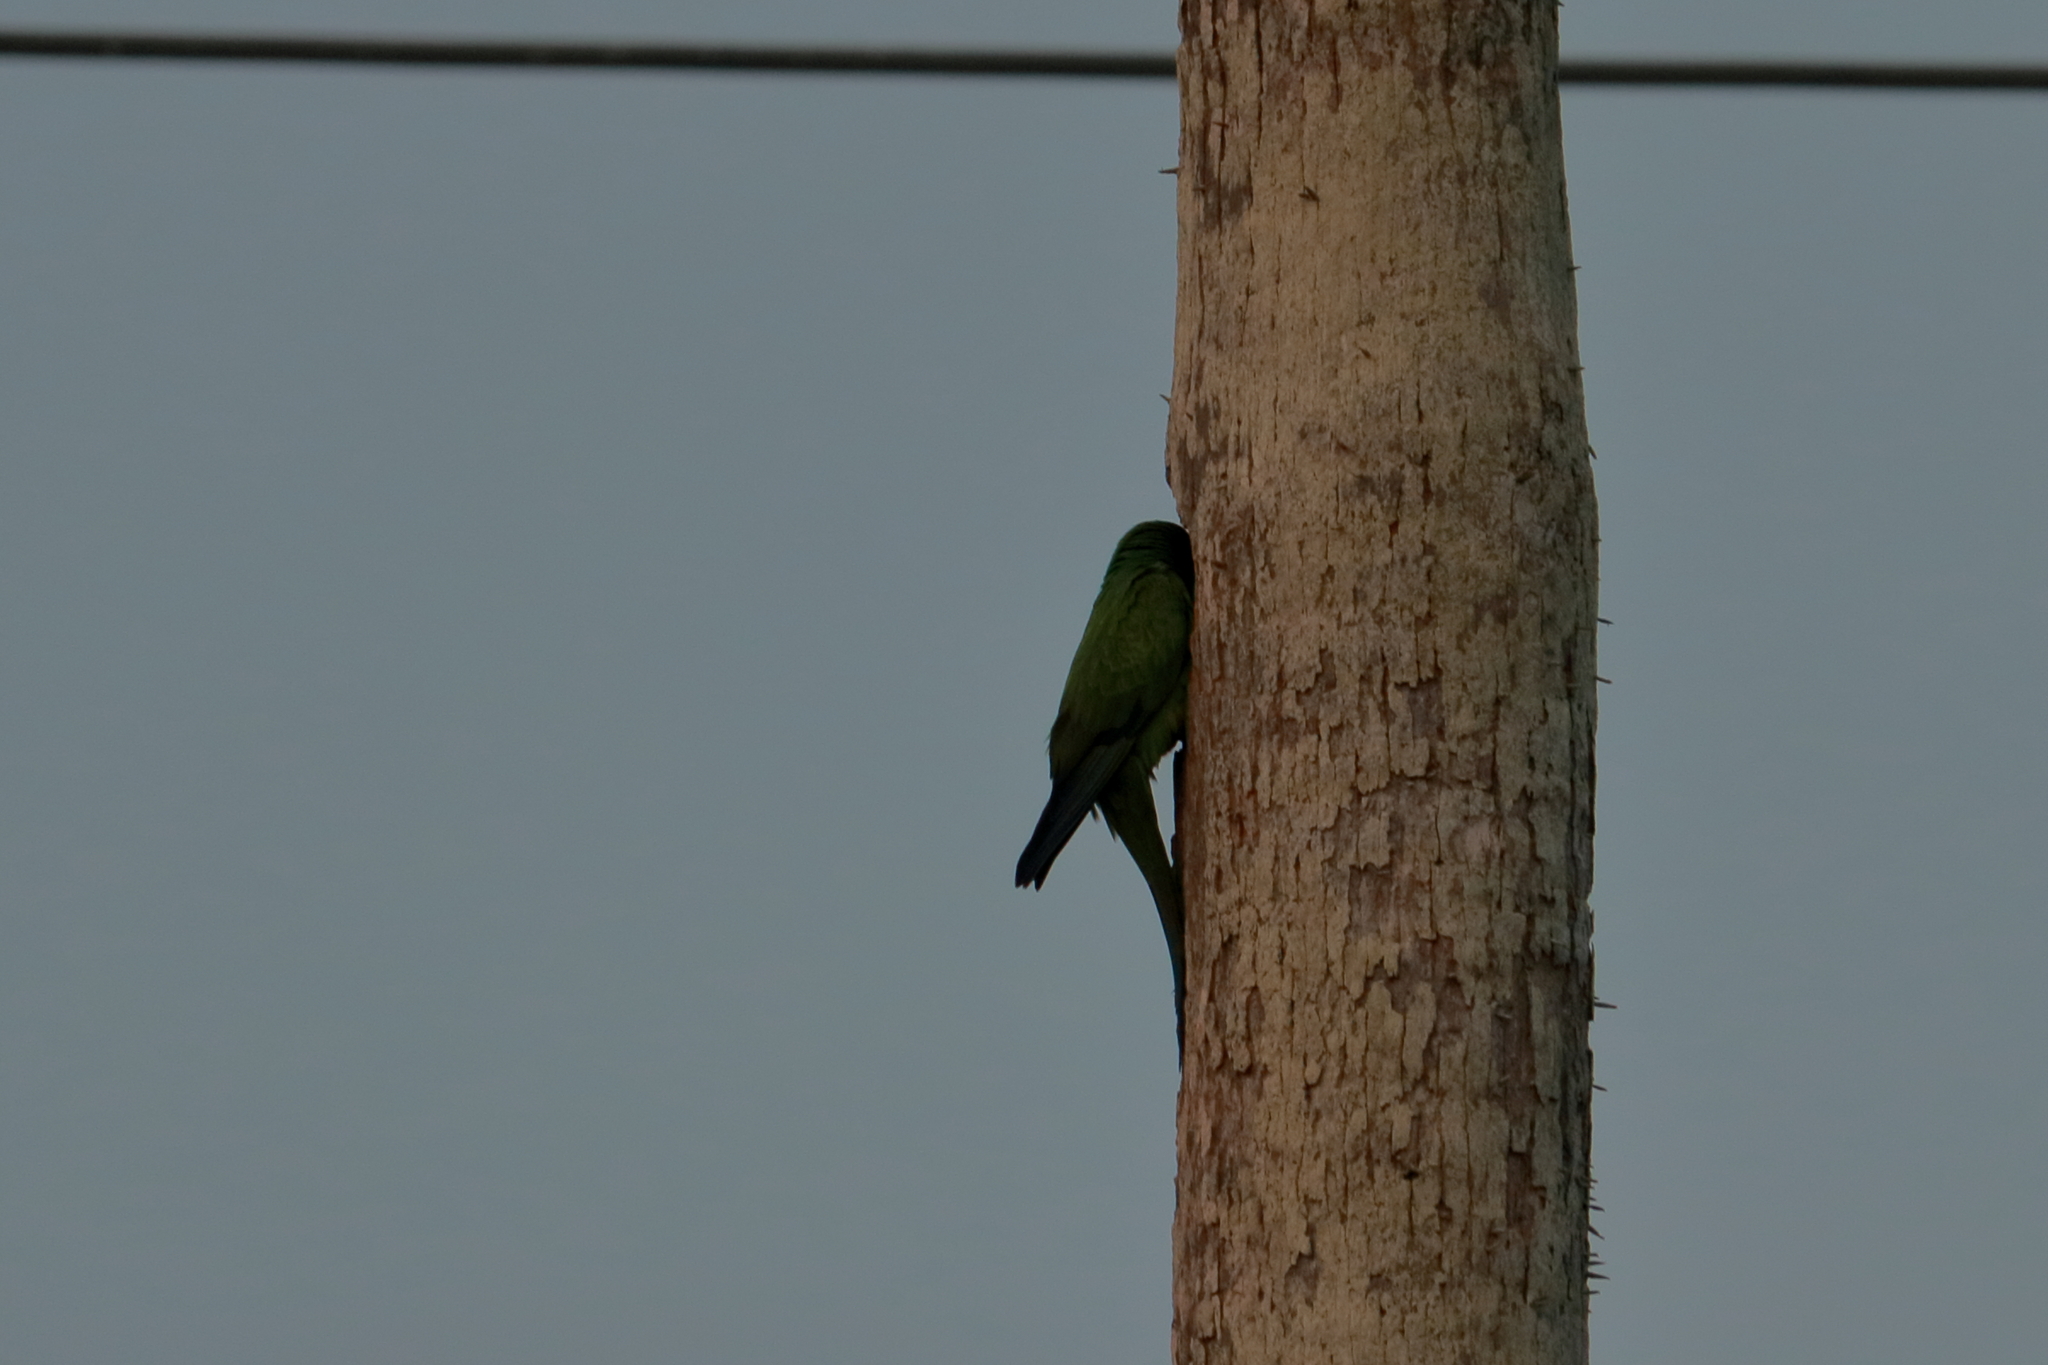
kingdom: Animalia
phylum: Chordata
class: Aves
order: Psittaciformes
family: Psittacidae
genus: Nandayus
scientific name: Nandayus nenday
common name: Nanday parakeet
